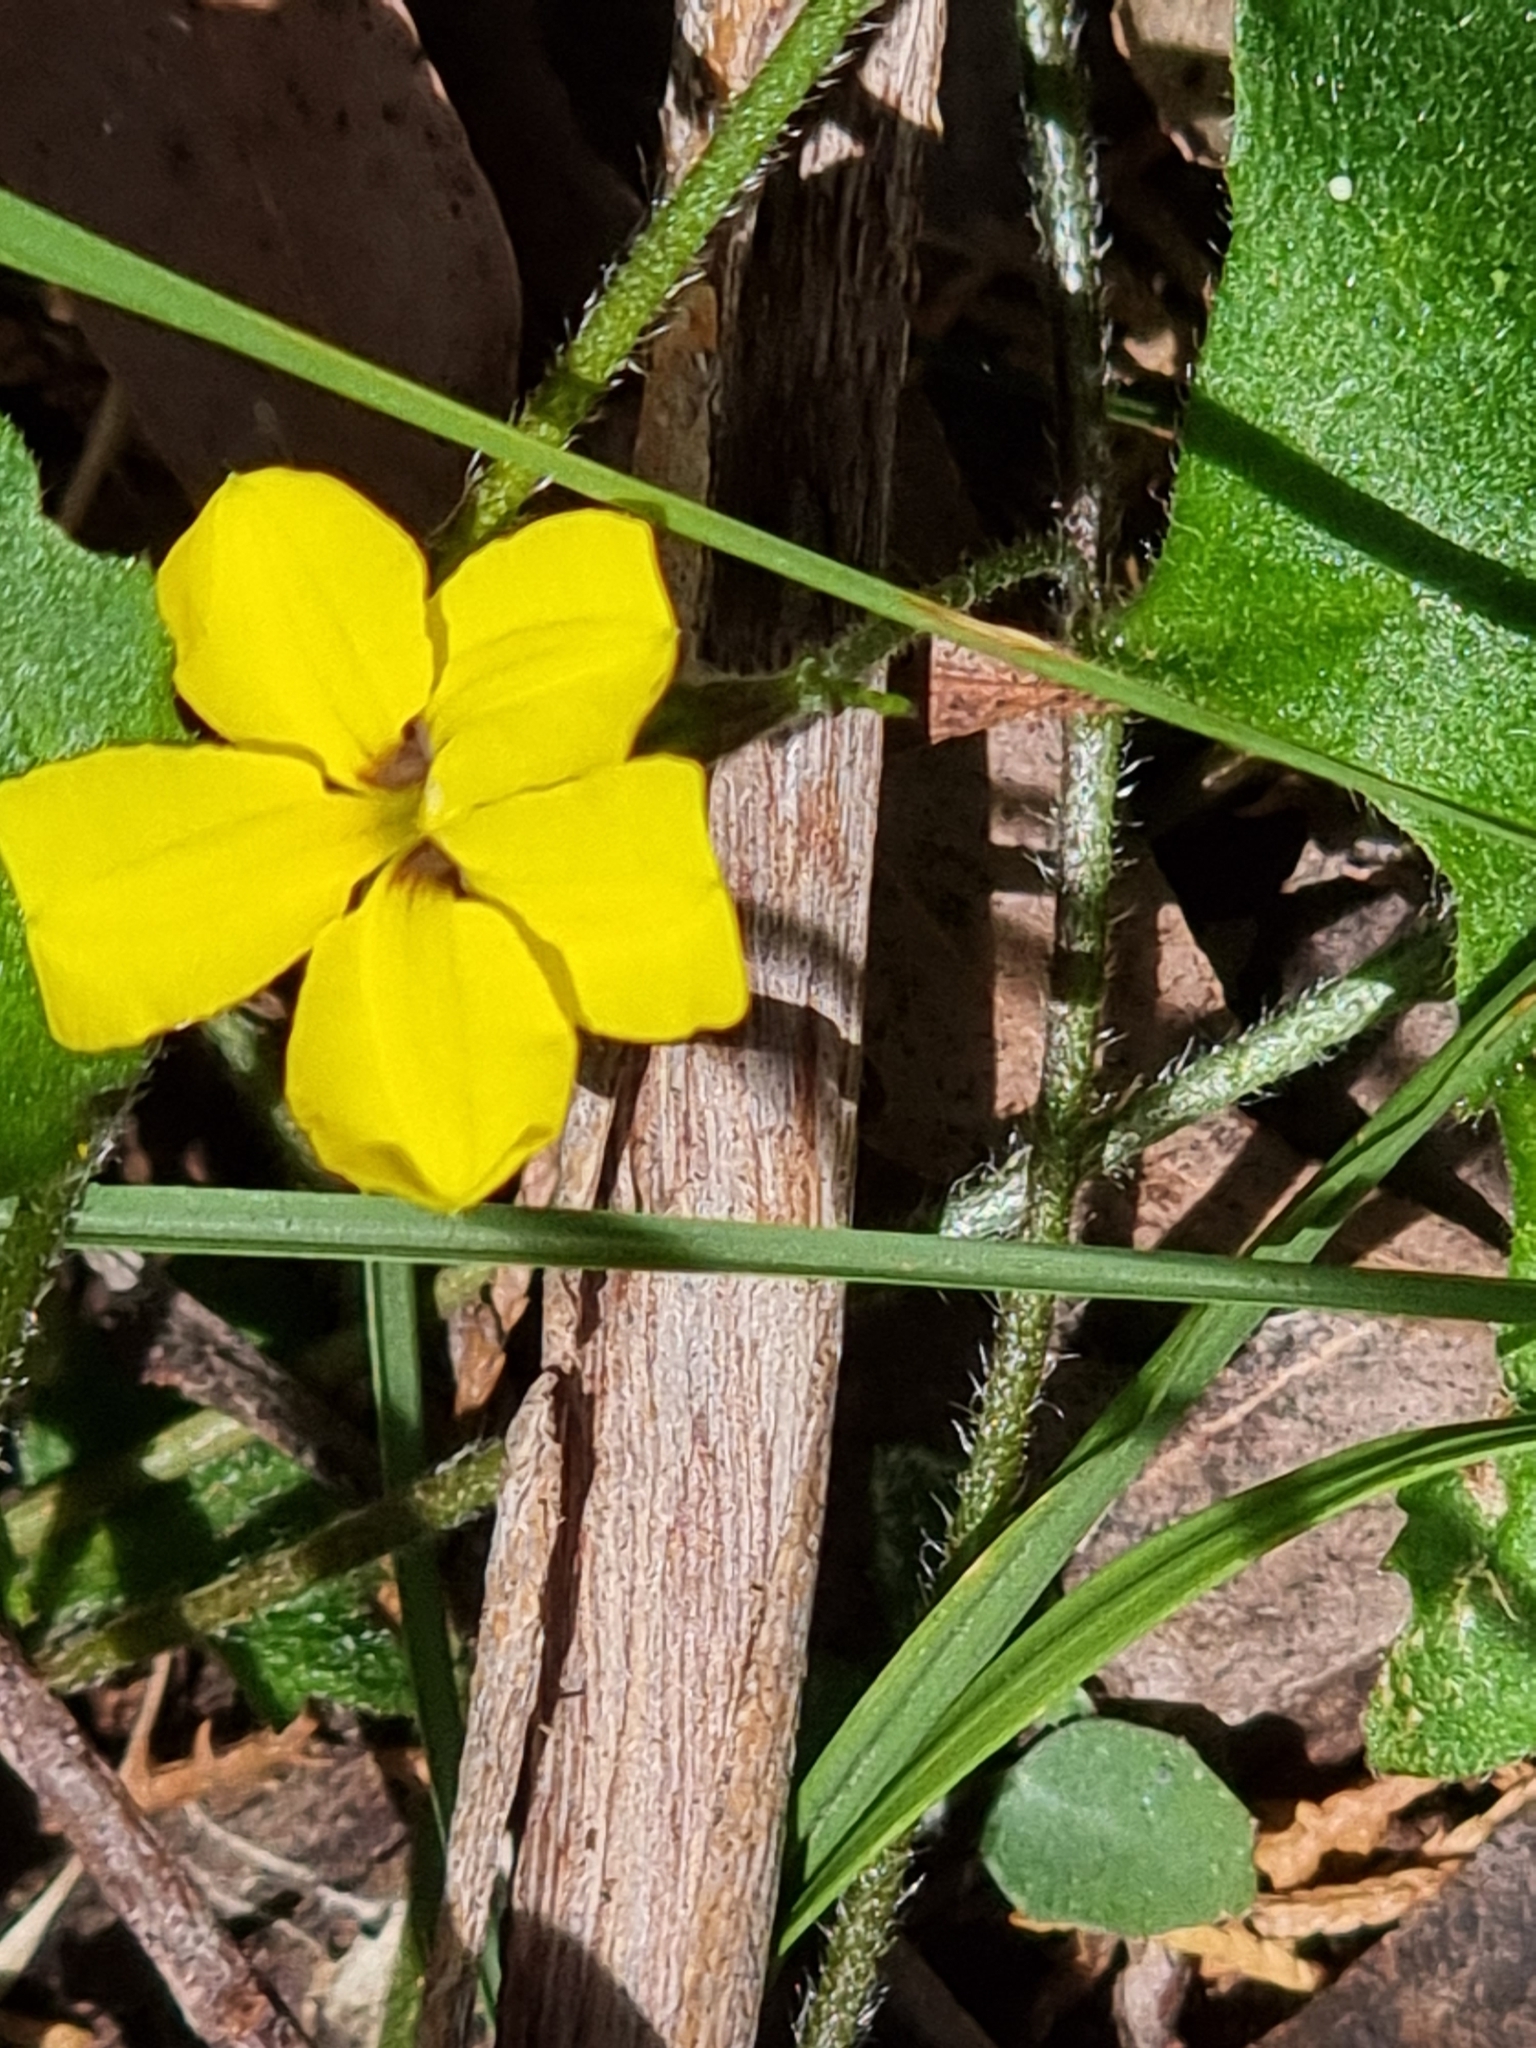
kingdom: Plantae
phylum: Tracheophyta
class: Magnoliopsida
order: Asterales
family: Goodeniaceae
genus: Goodenia
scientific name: Goodenia rotundifolia
